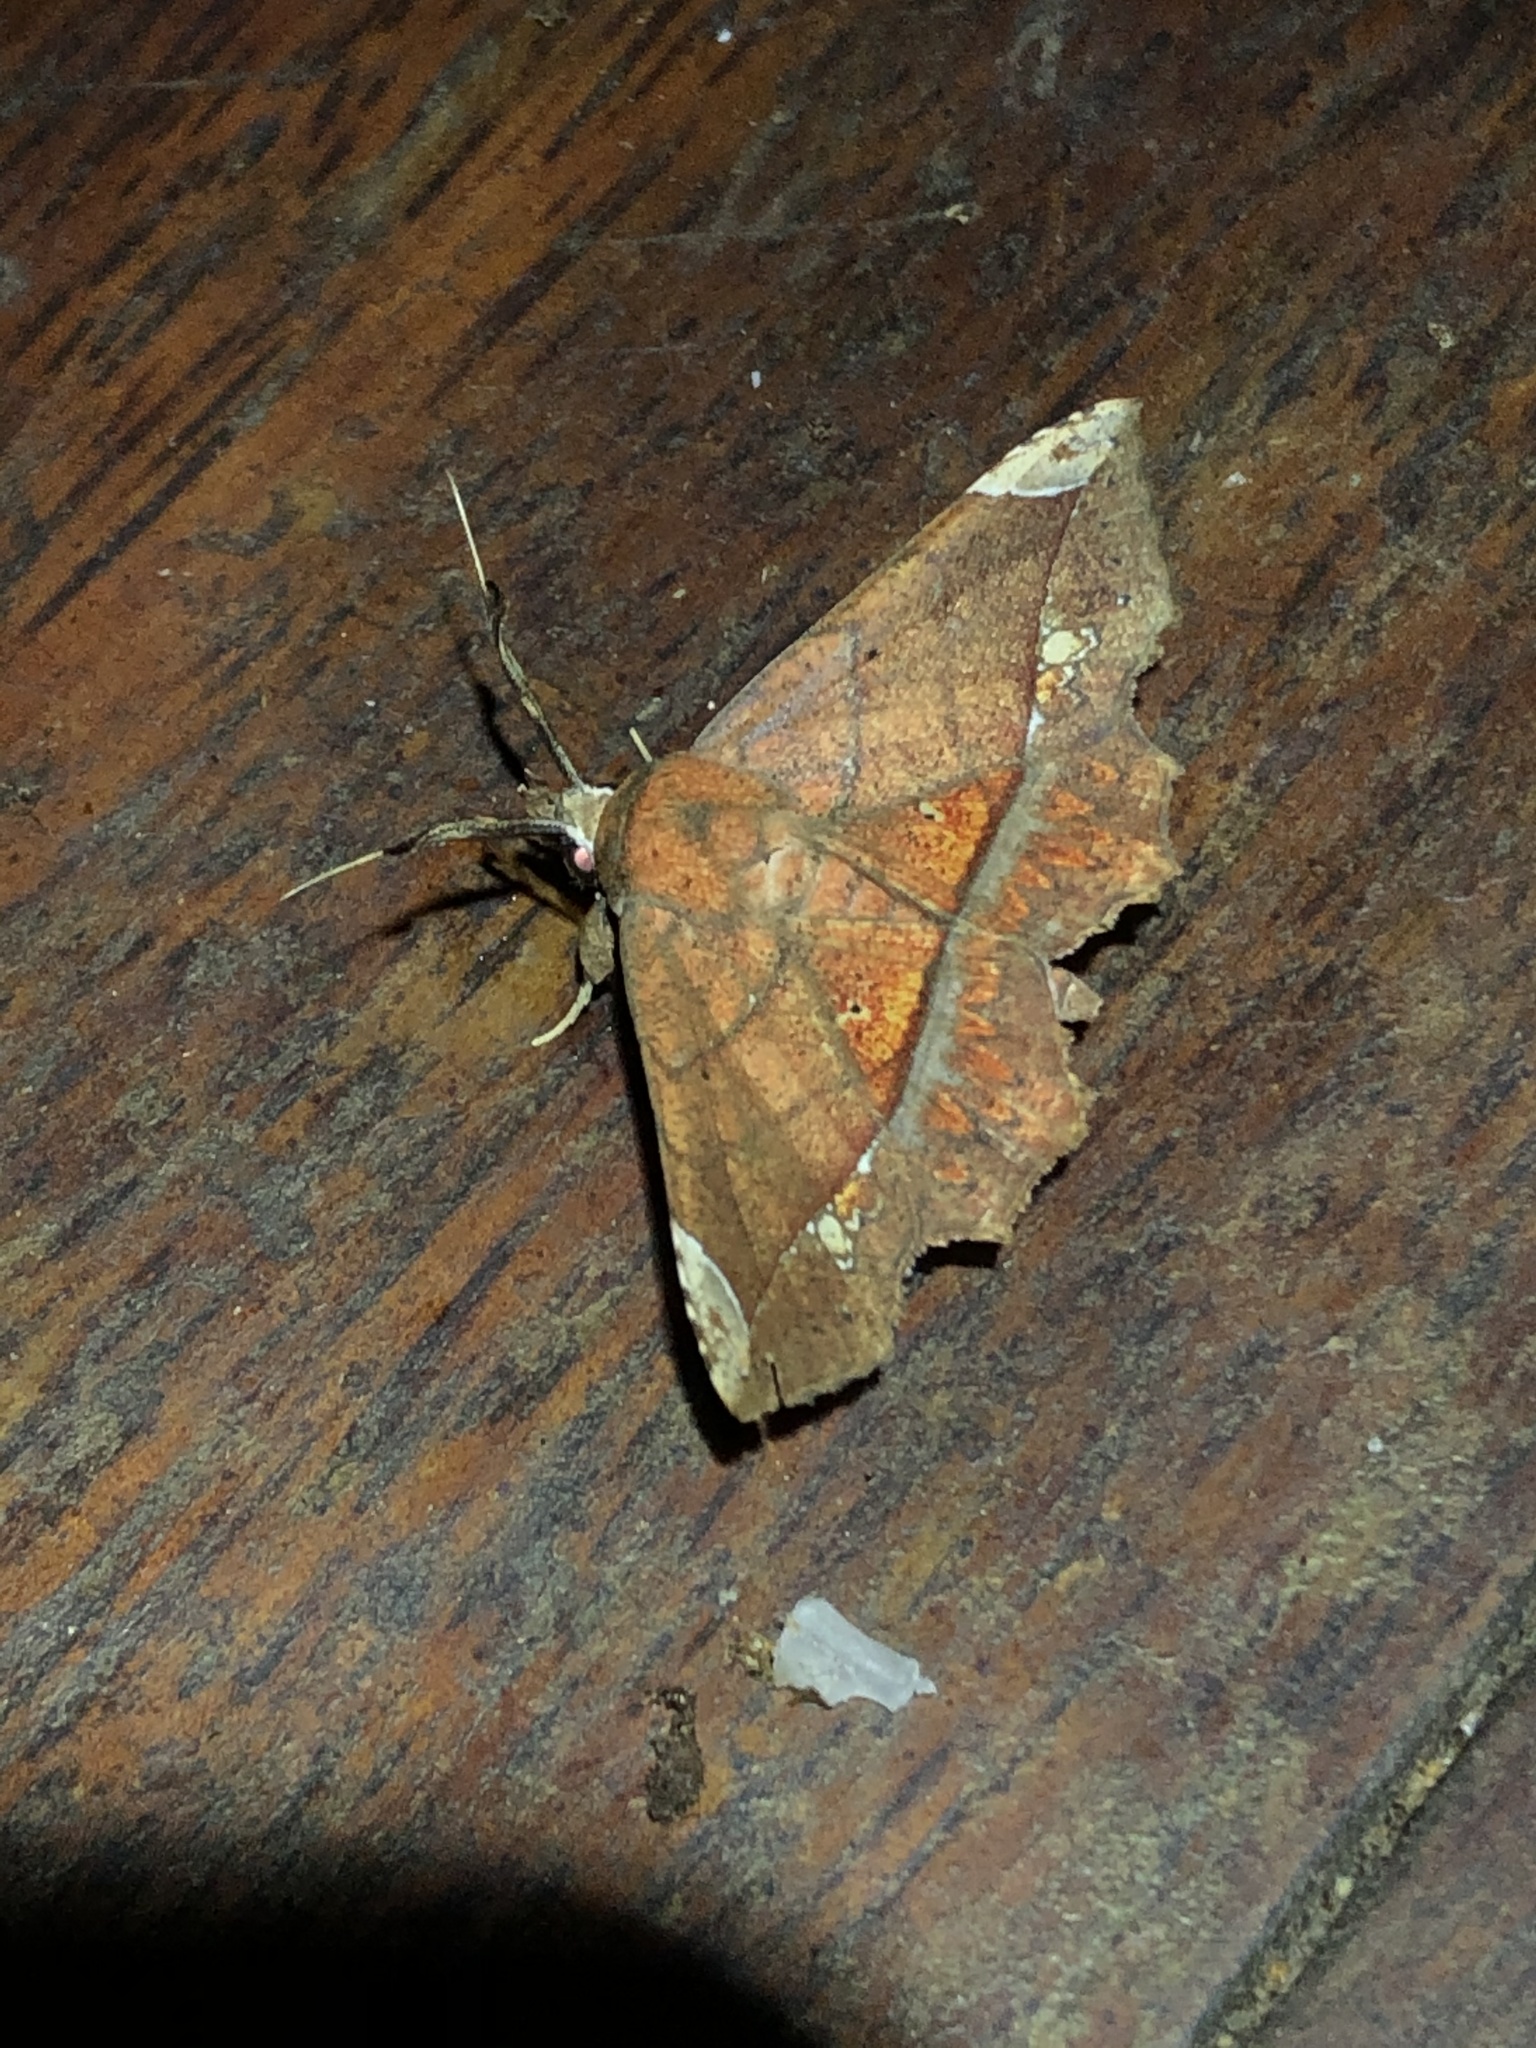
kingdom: Animalia
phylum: Arthropoda
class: Insecta
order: Lepidoptera
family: Erebidae
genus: Syllectra
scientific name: Syllectra erycata
